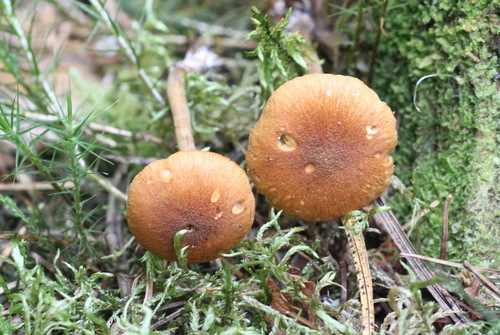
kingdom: Fungi
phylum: Basidiomycota
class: Agaricomycetes
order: Agaricales
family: Hymenogastraceae
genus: Gymnopilus
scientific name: Gymnopilus sapineus
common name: Scaly rustgill
